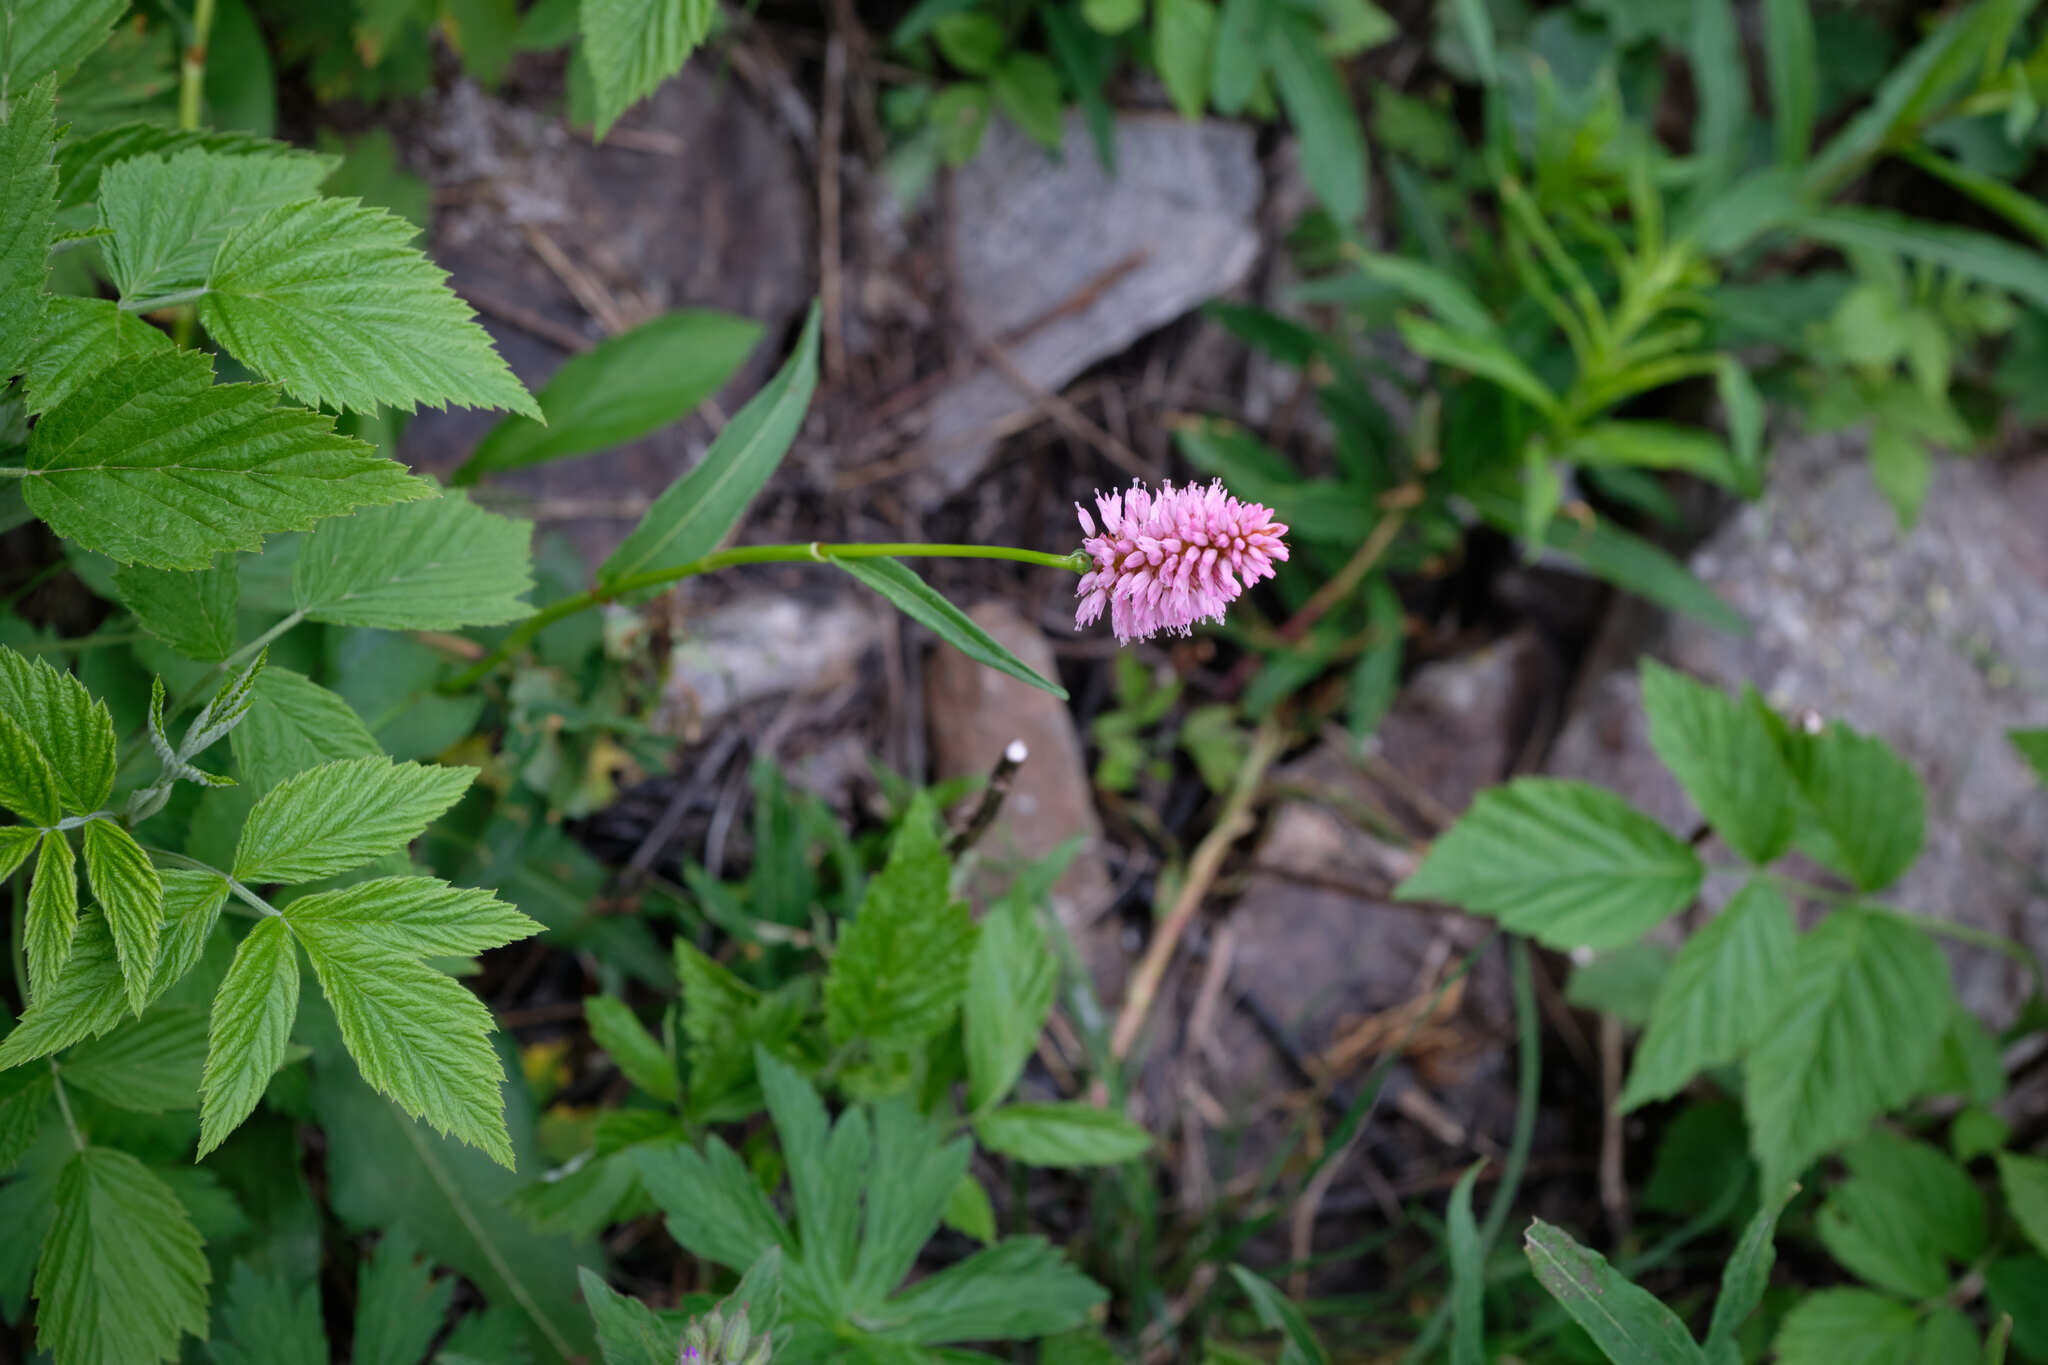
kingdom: Plantae
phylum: Tracheophyta
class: Magnoliopsida
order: Caryophyllales
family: Polygonaceae
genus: Bistorta
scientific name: Bistorta carnea
